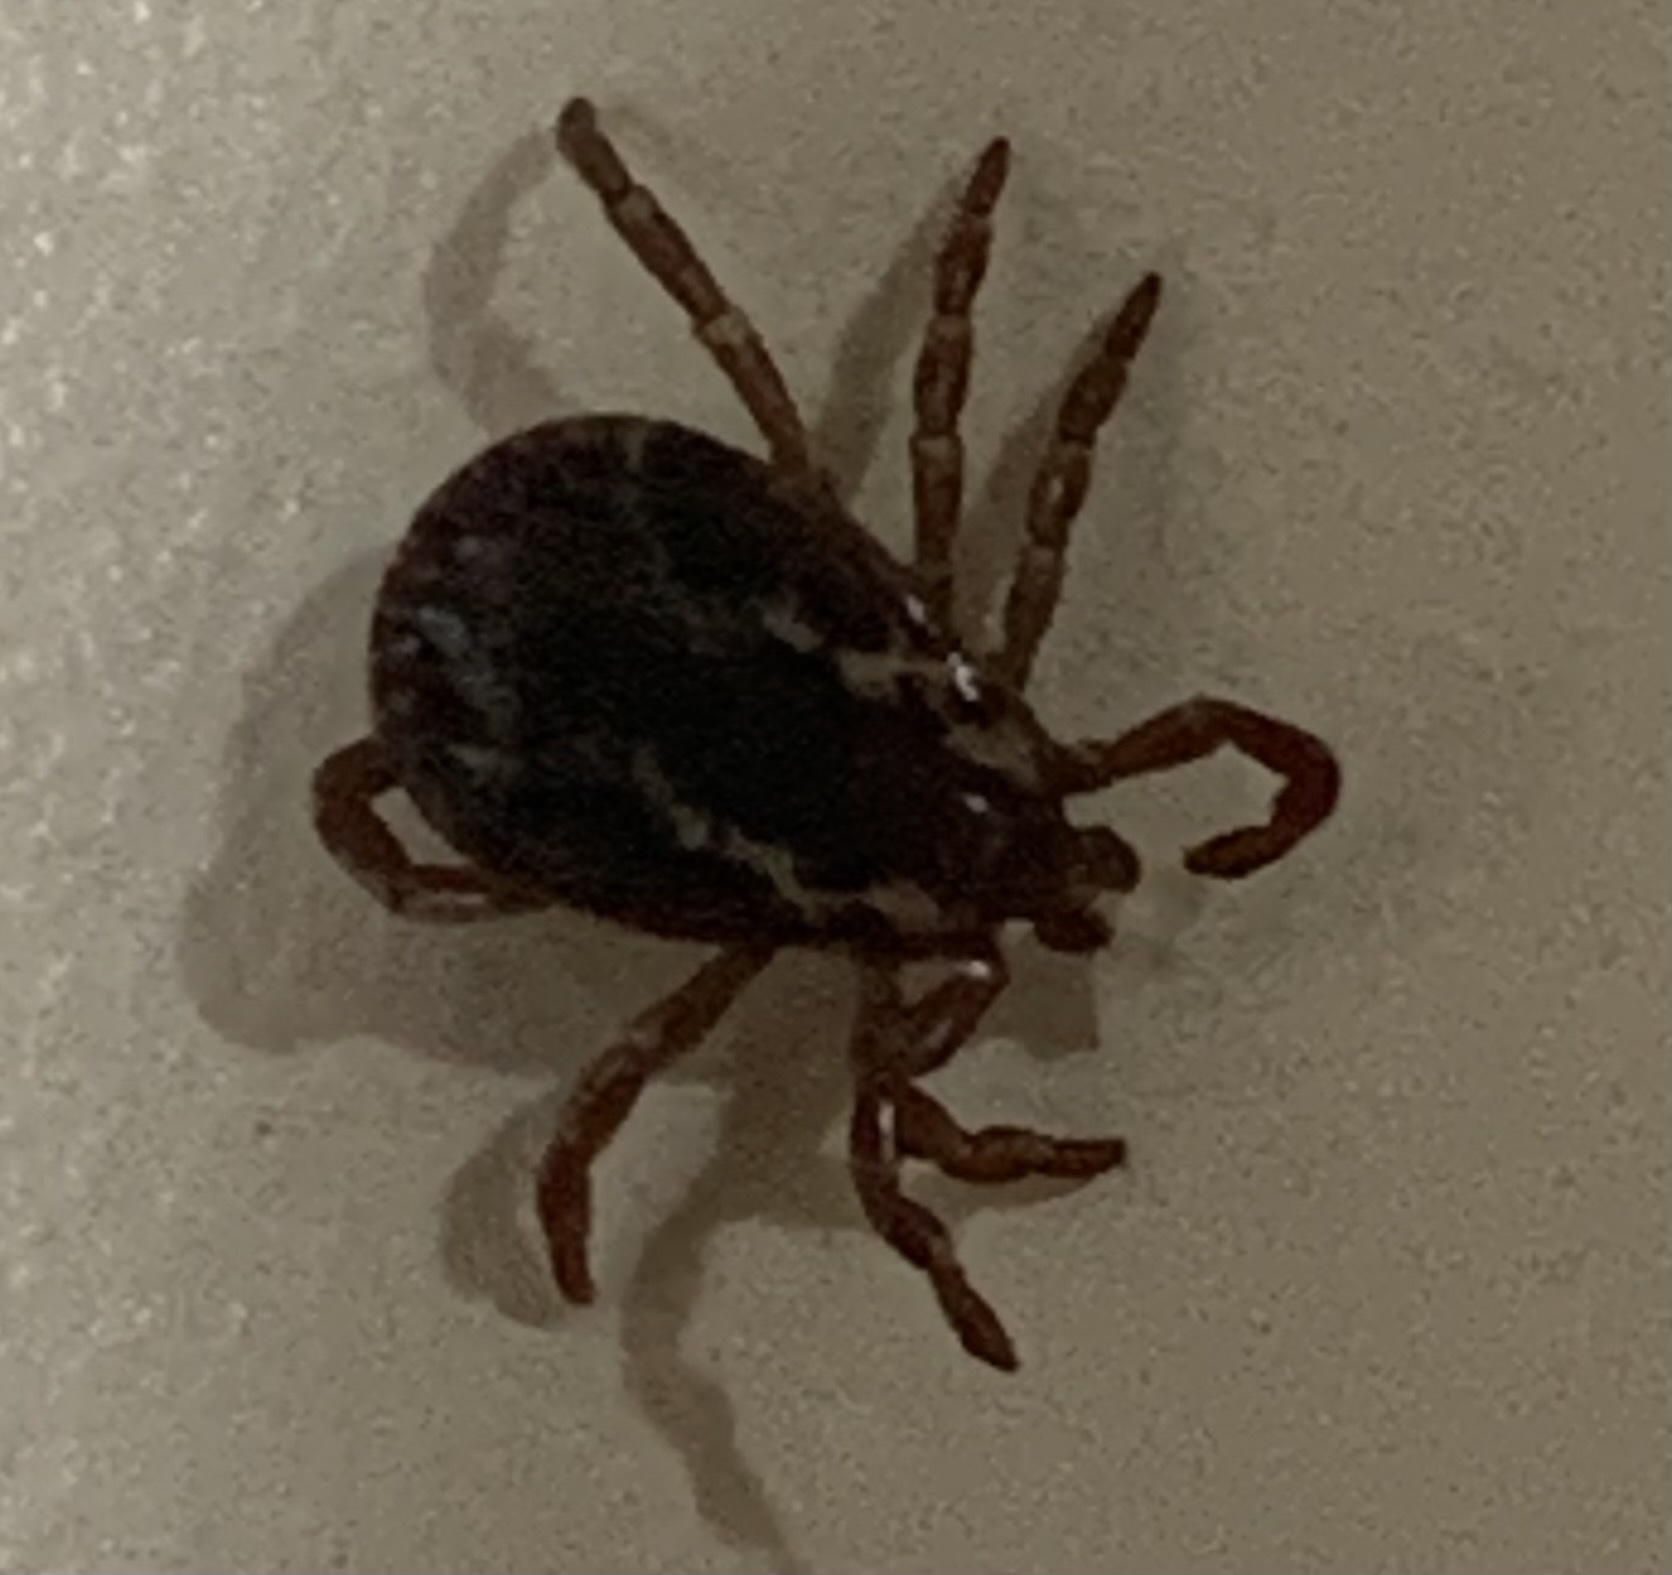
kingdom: Animalia
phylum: Arthropoda
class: Arachnida
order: Ixodida
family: Ixodidae
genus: Dermacentor
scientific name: Dermacentor variabilis
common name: American dog tick
